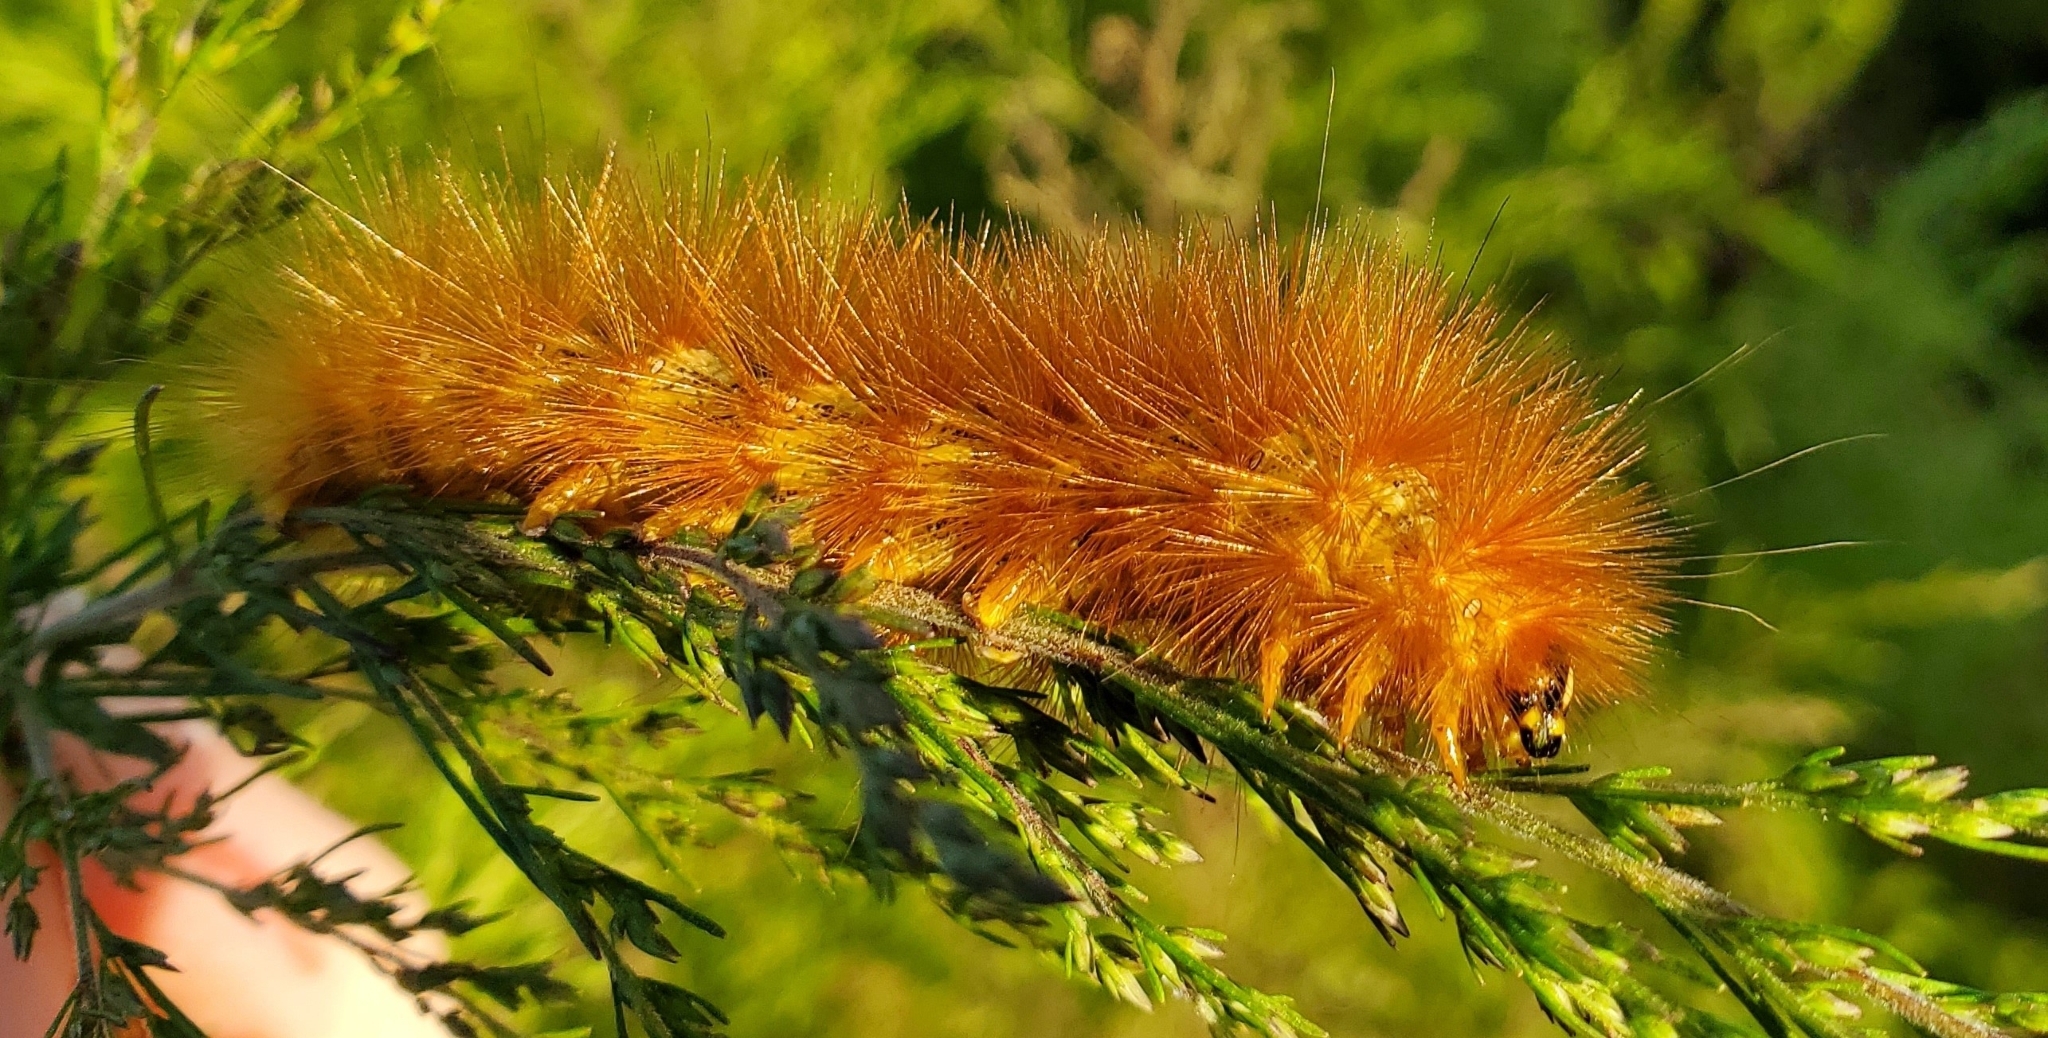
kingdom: Animalia
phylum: Arthropoda
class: Insecta
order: Lepidoptera
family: Erebidae
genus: Estigmene
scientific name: Estigmene acrea
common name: Salt marsh moth
